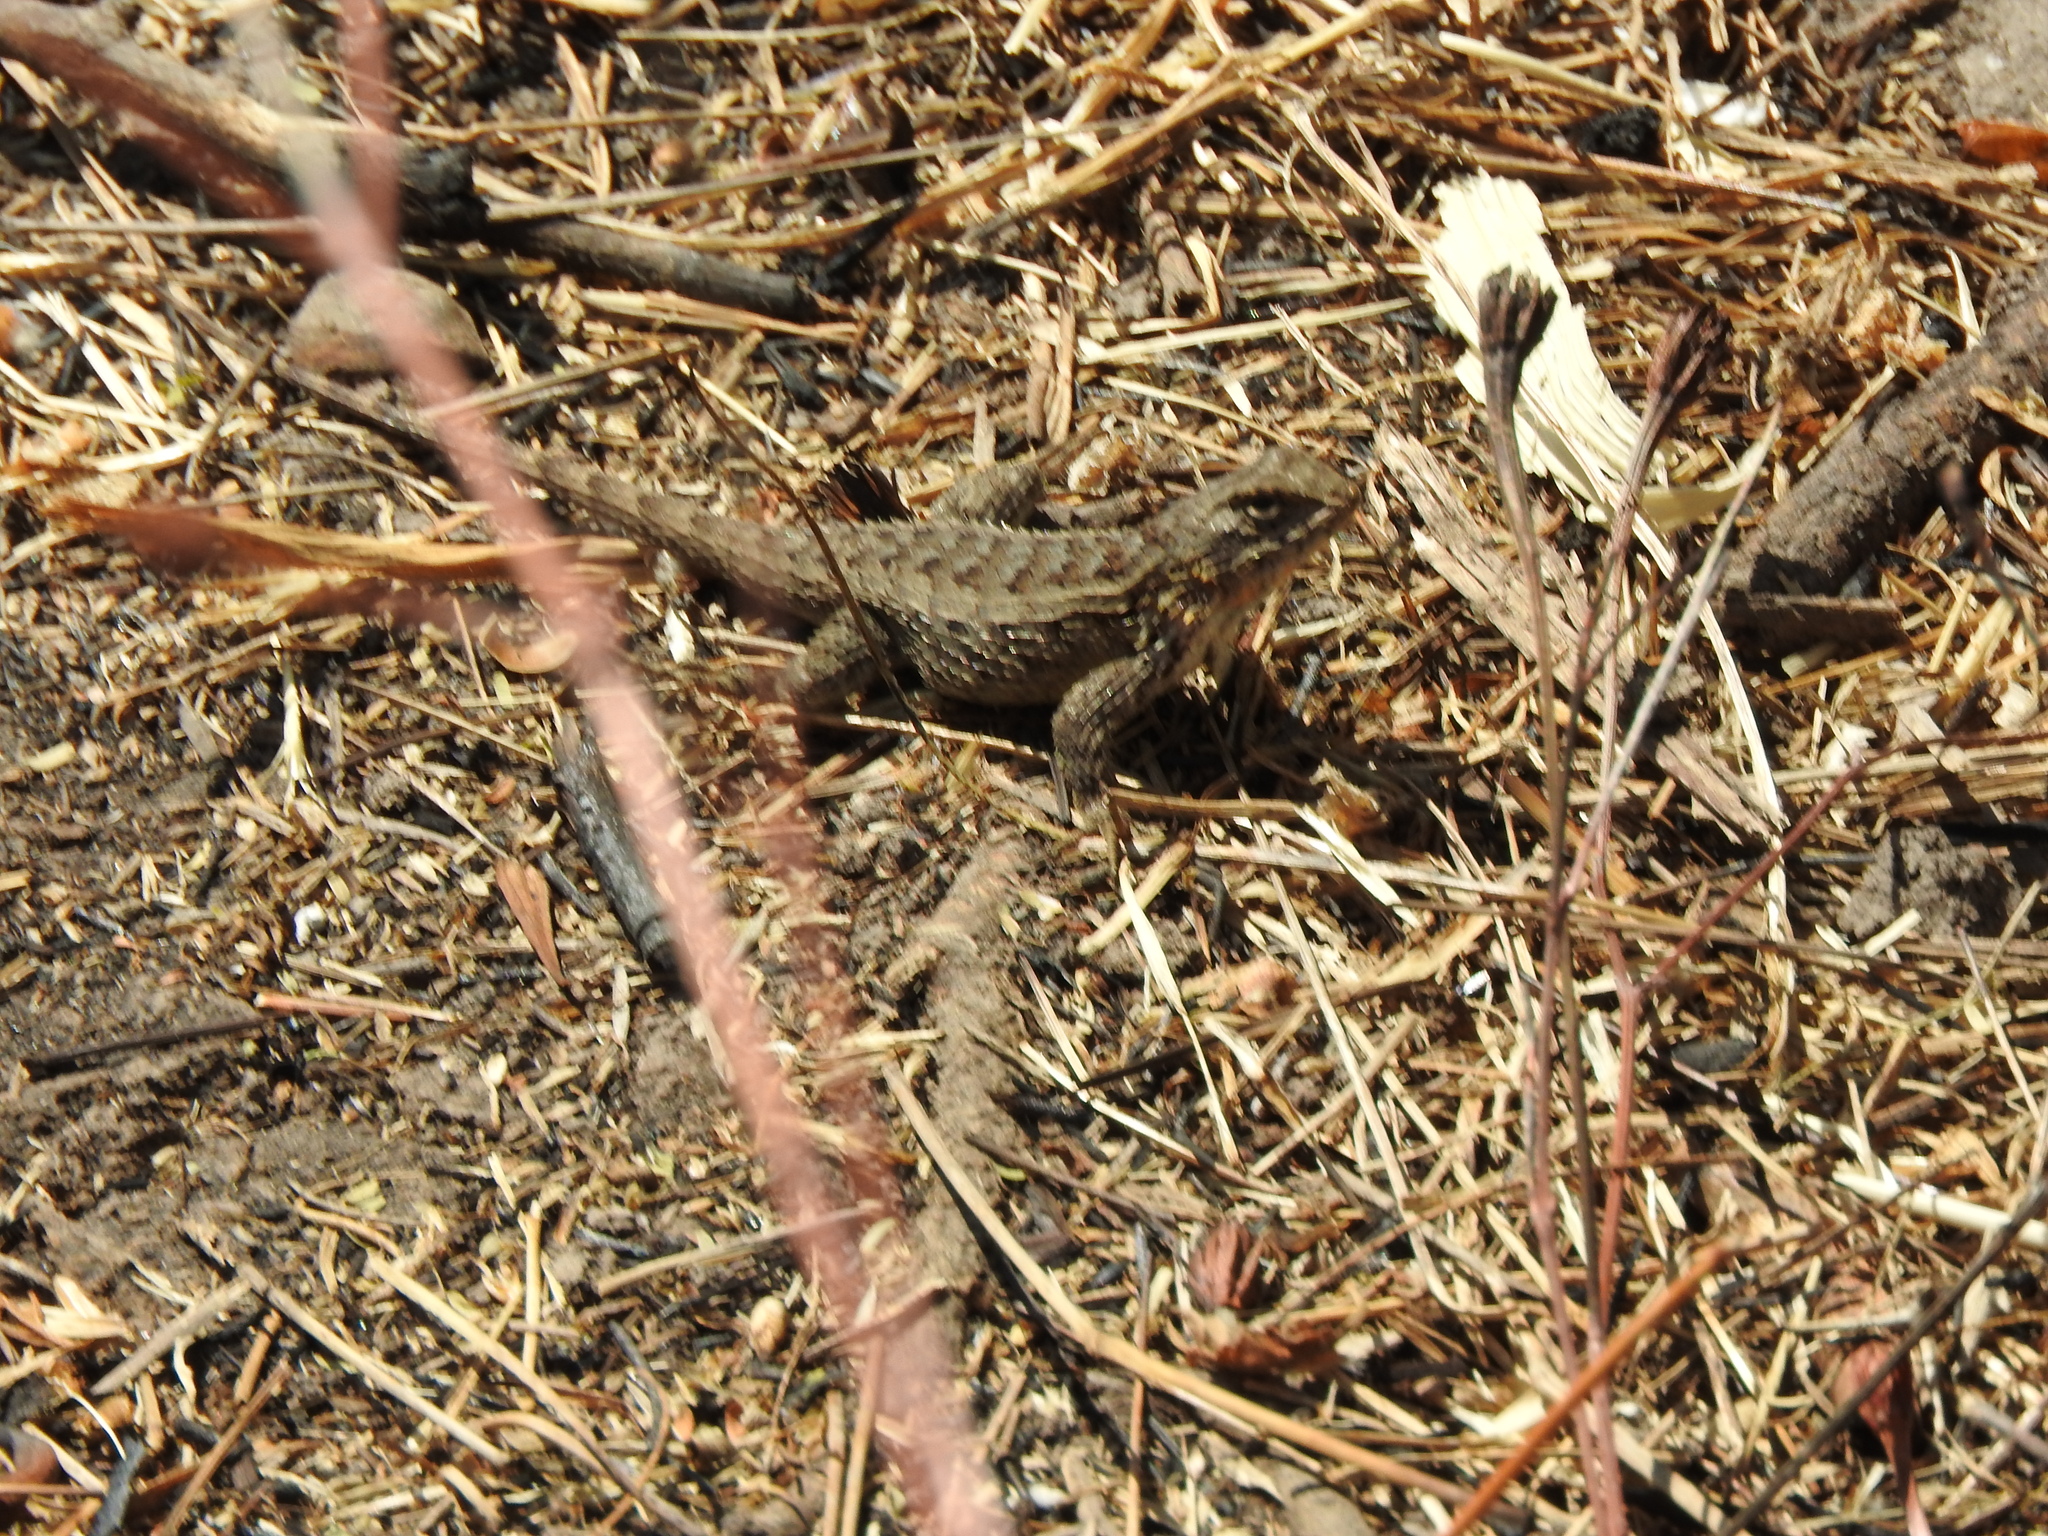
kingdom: Animalia
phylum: Chordata
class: Squamata
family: Phrynosomatidae
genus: Sceloporus
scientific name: Sceloporus spinosus
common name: Blue-spotted spiny lizard [caeruleopunctatus]
